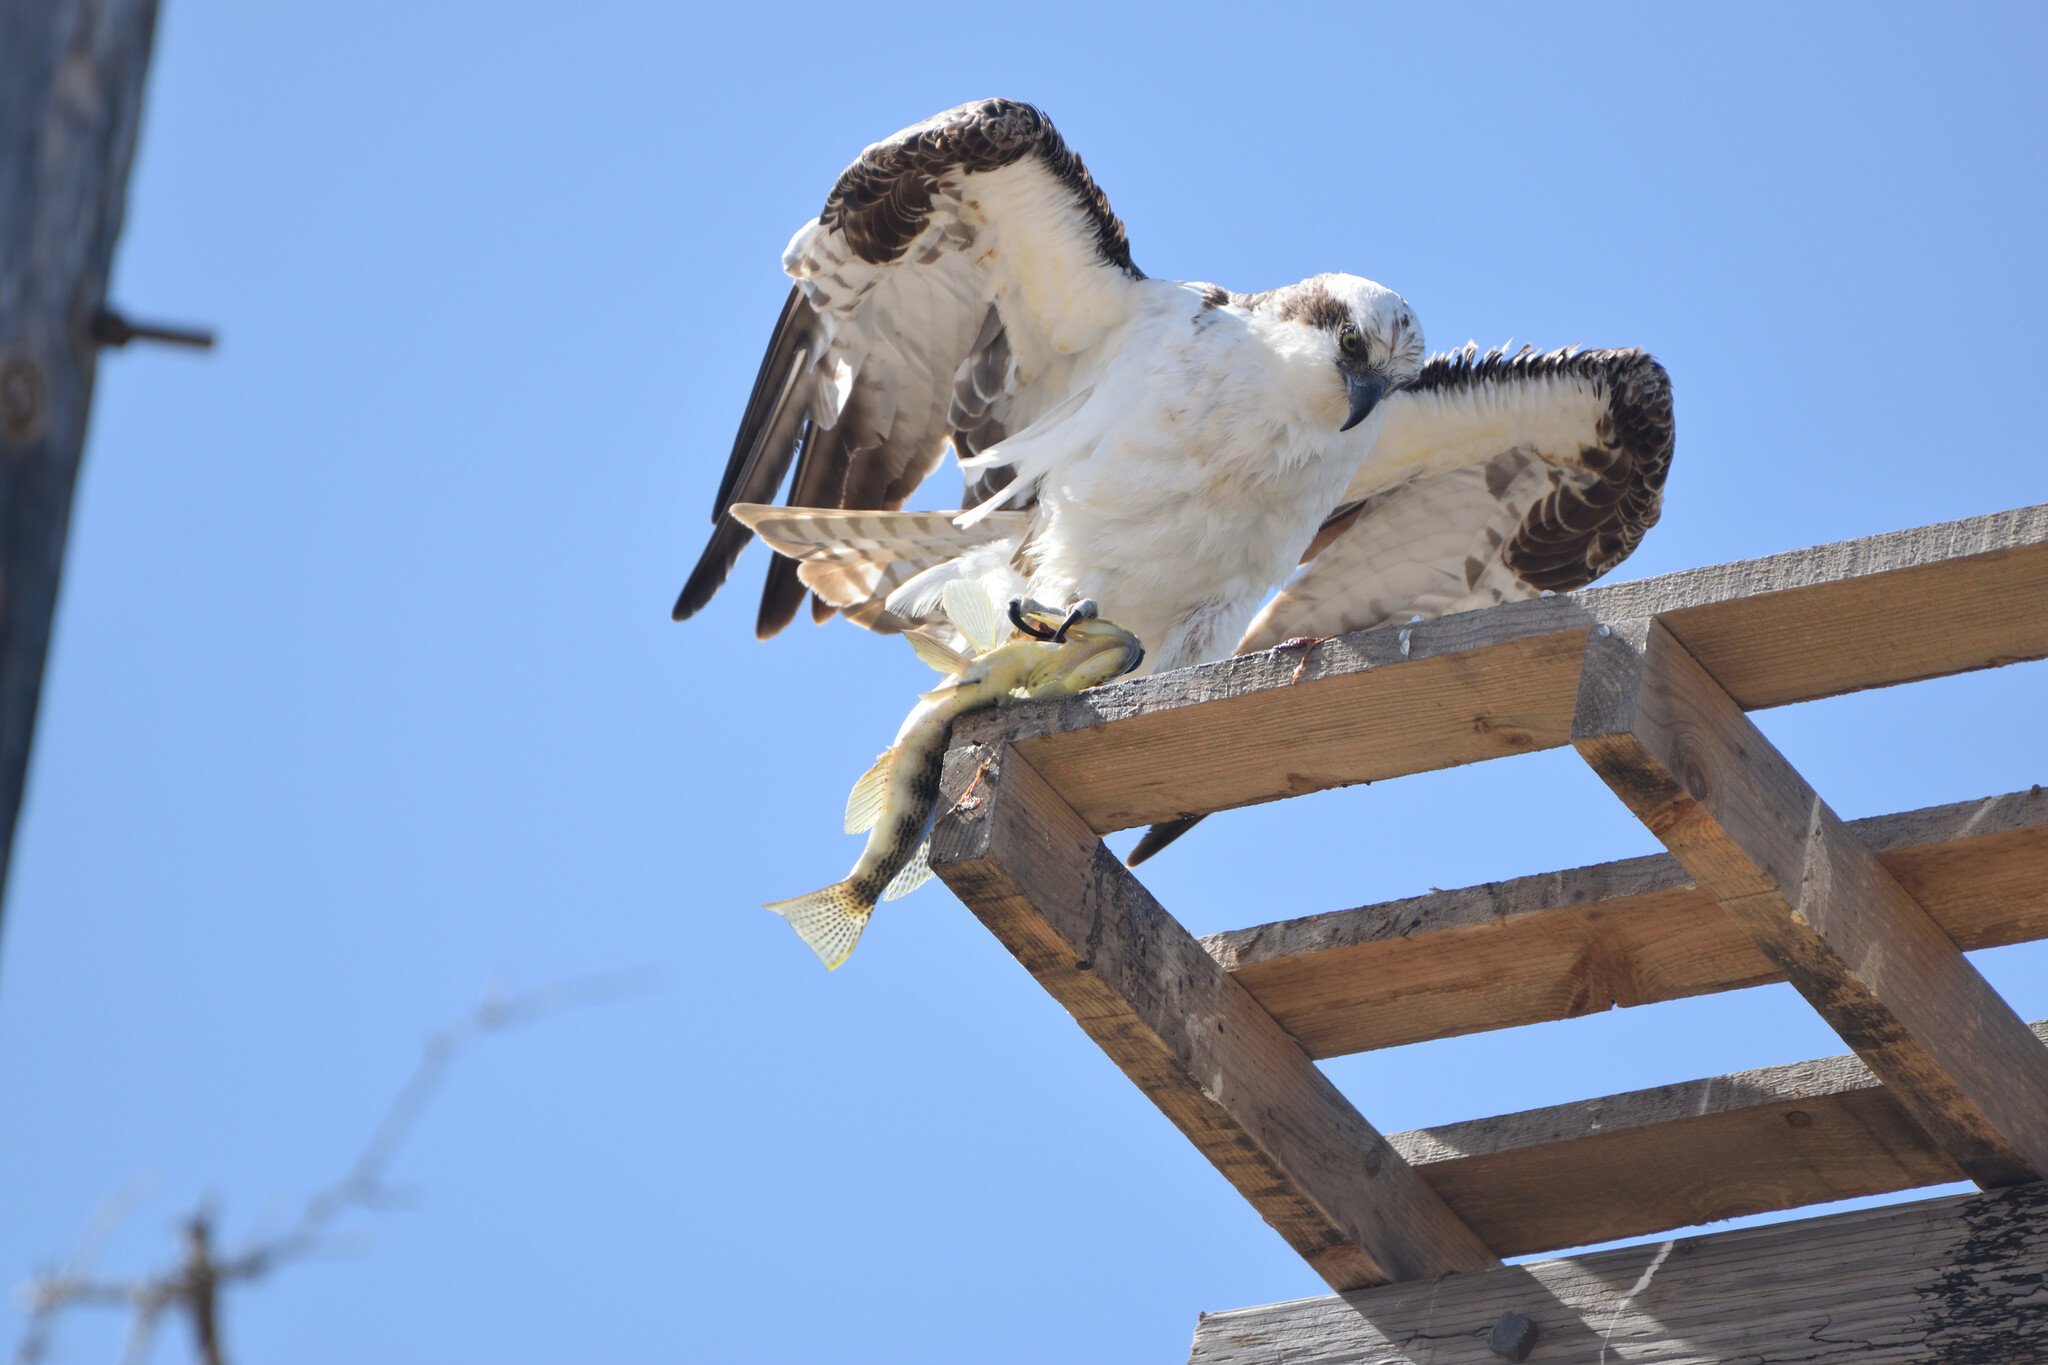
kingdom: Animalia
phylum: Chordata
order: Perciformes
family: Serranidae
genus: Paralabrax
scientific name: Paralabrax maculatofasciatus
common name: Spotted sand bass
